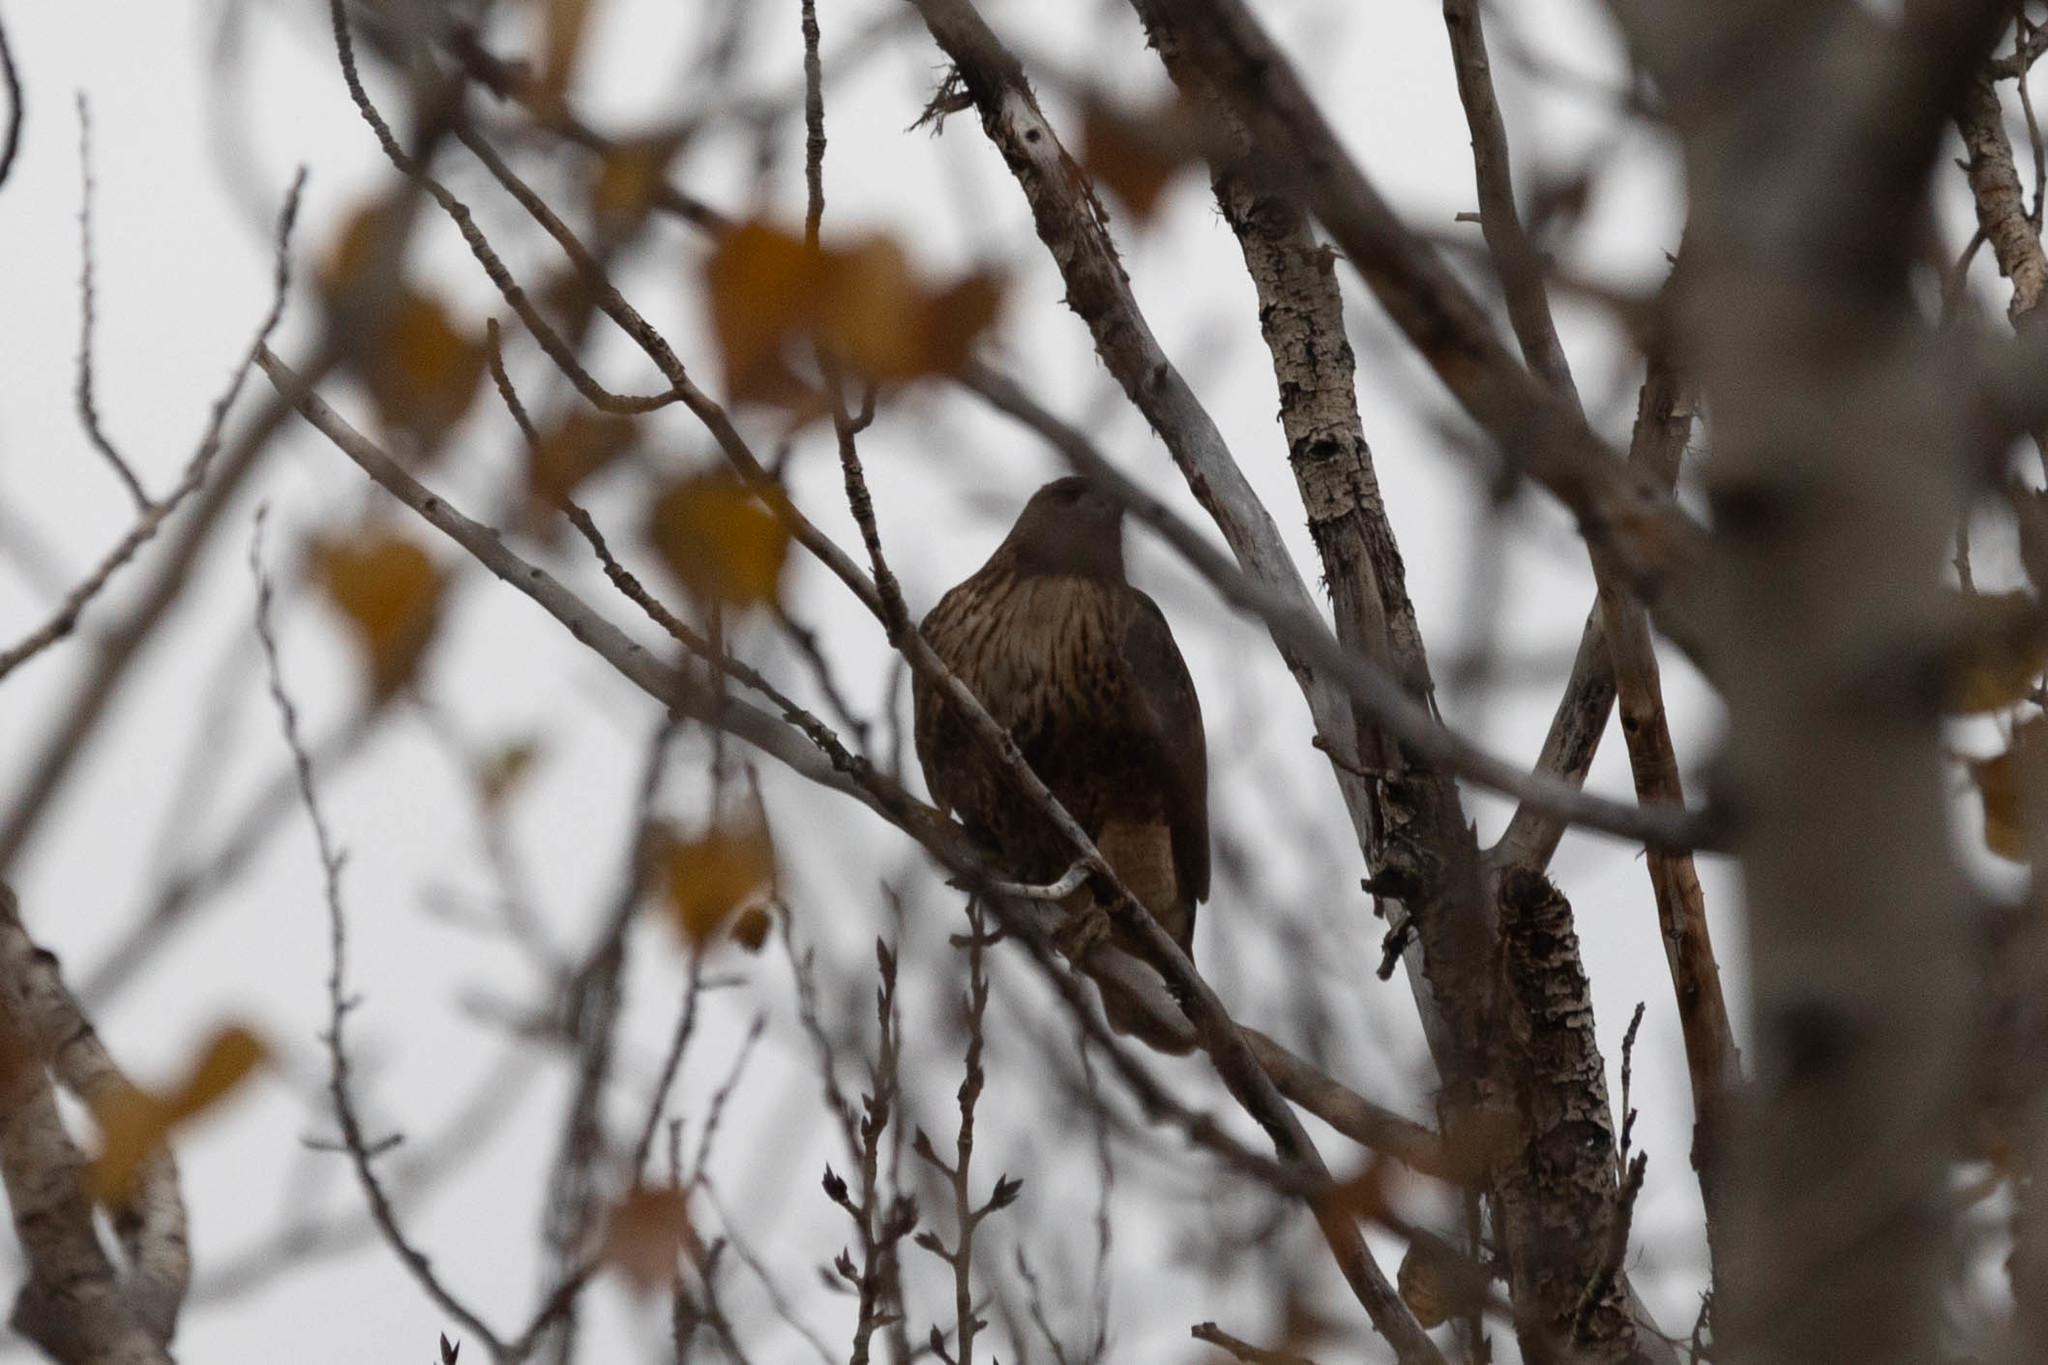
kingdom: Animalia
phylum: Chordata
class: Aves
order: Accipitriformes
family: Accipitridae
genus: Buteo
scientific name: Buteo jamaicensis
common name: Red-tailed hawk
